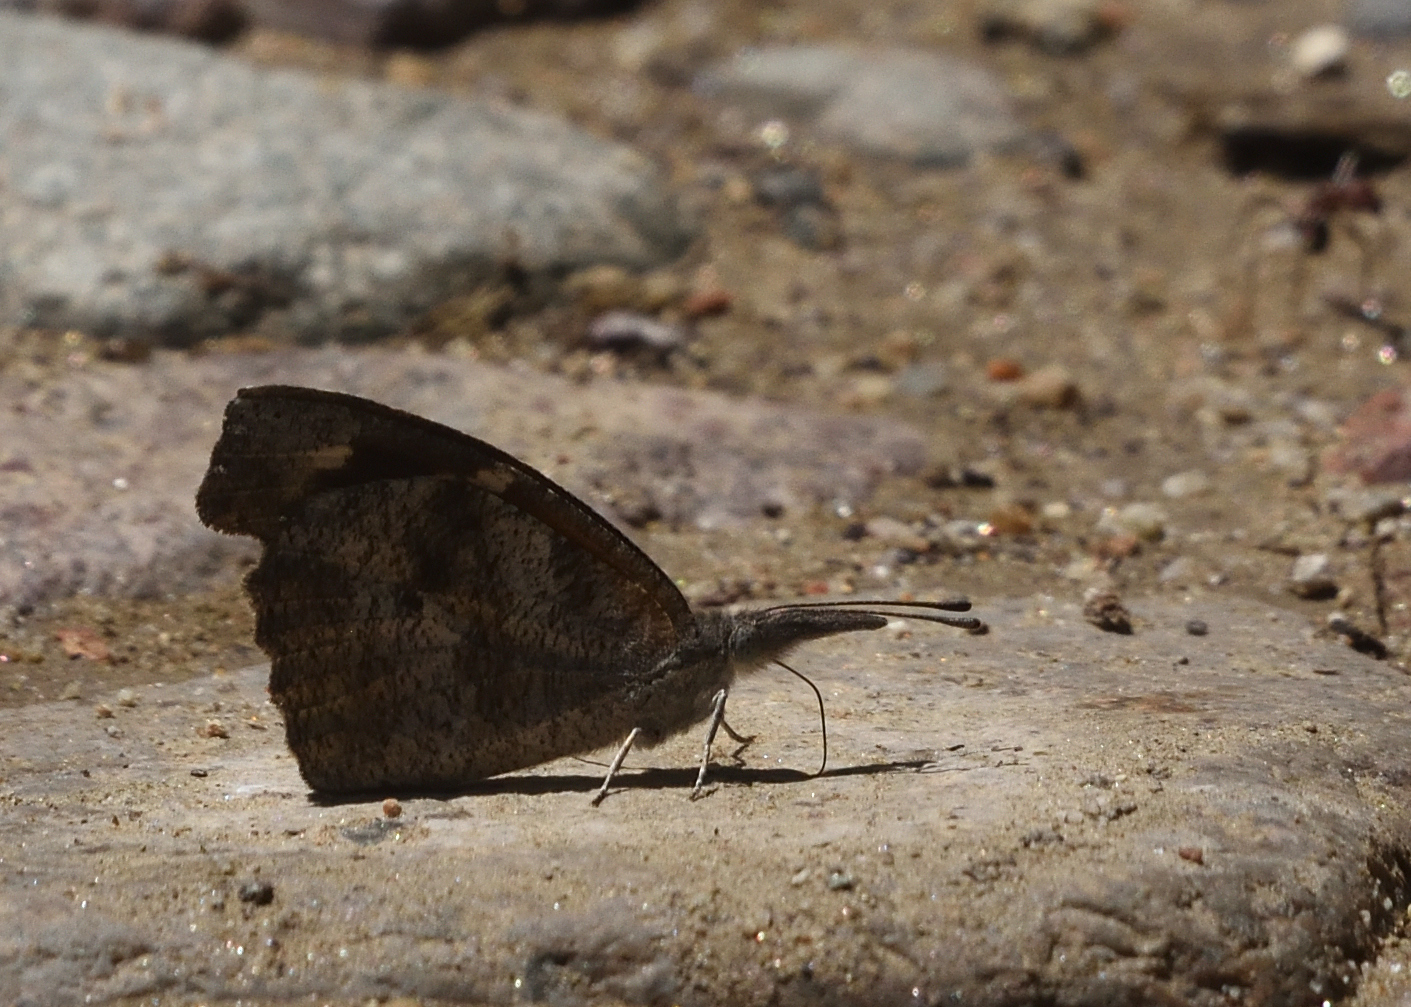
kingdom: Animalia
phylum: Arthropoda
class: Insecta
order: Lepidoptera
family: Nymphalidae
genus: Libytheana
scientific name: Libytheana carinenta
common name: American snout
